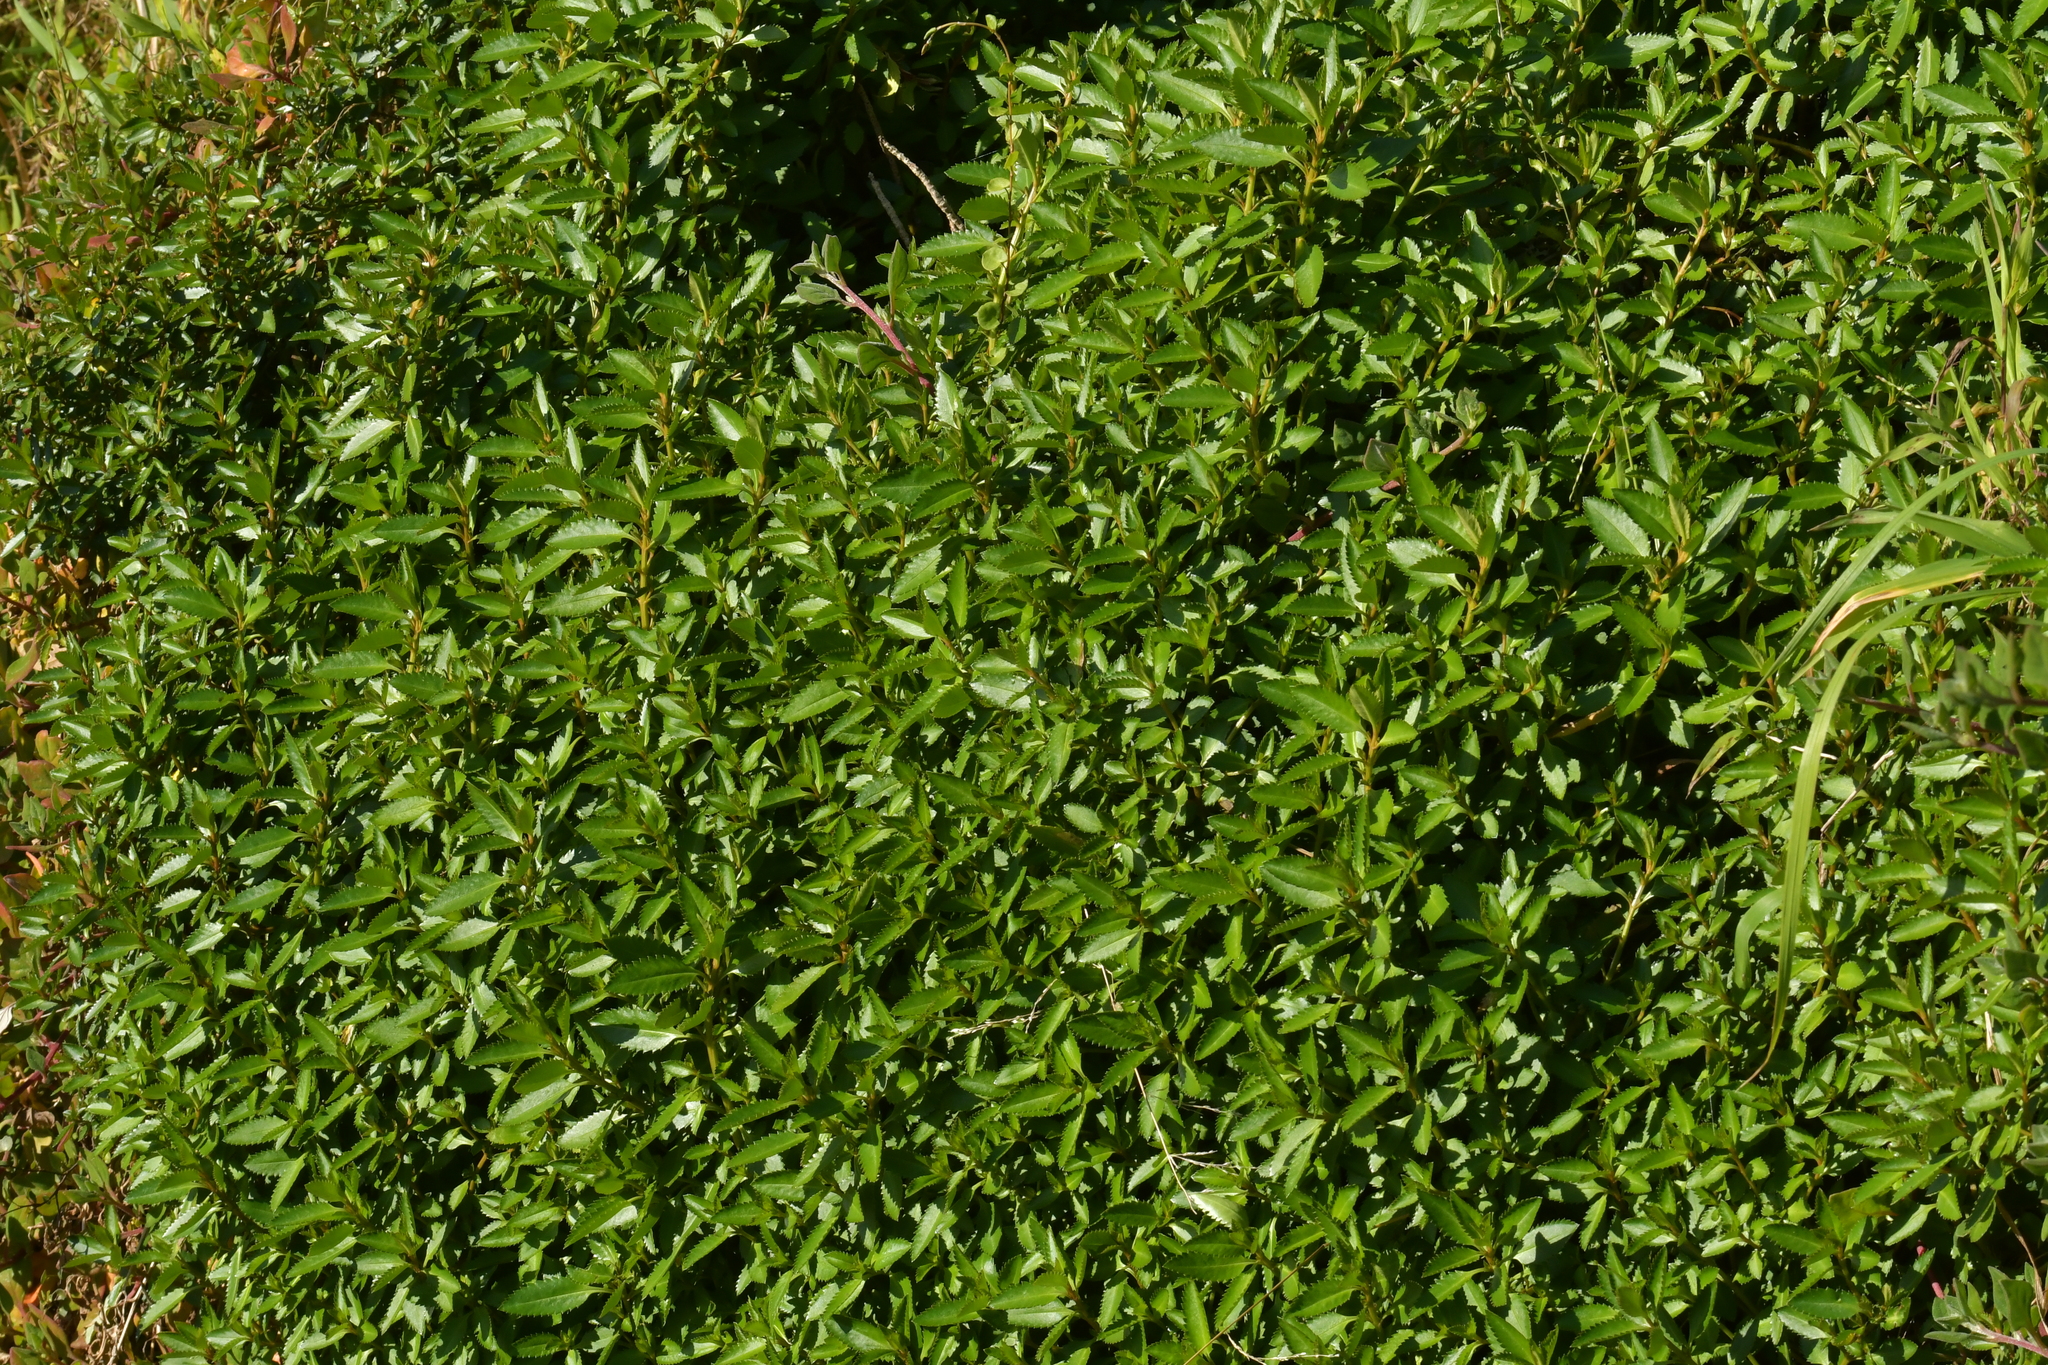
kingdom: Plantae
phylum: Tracheophyta
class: Magnoliopsida
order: Saxifragales
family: Haloragaceae
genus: Haloragis
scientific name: Haloragis erecta
